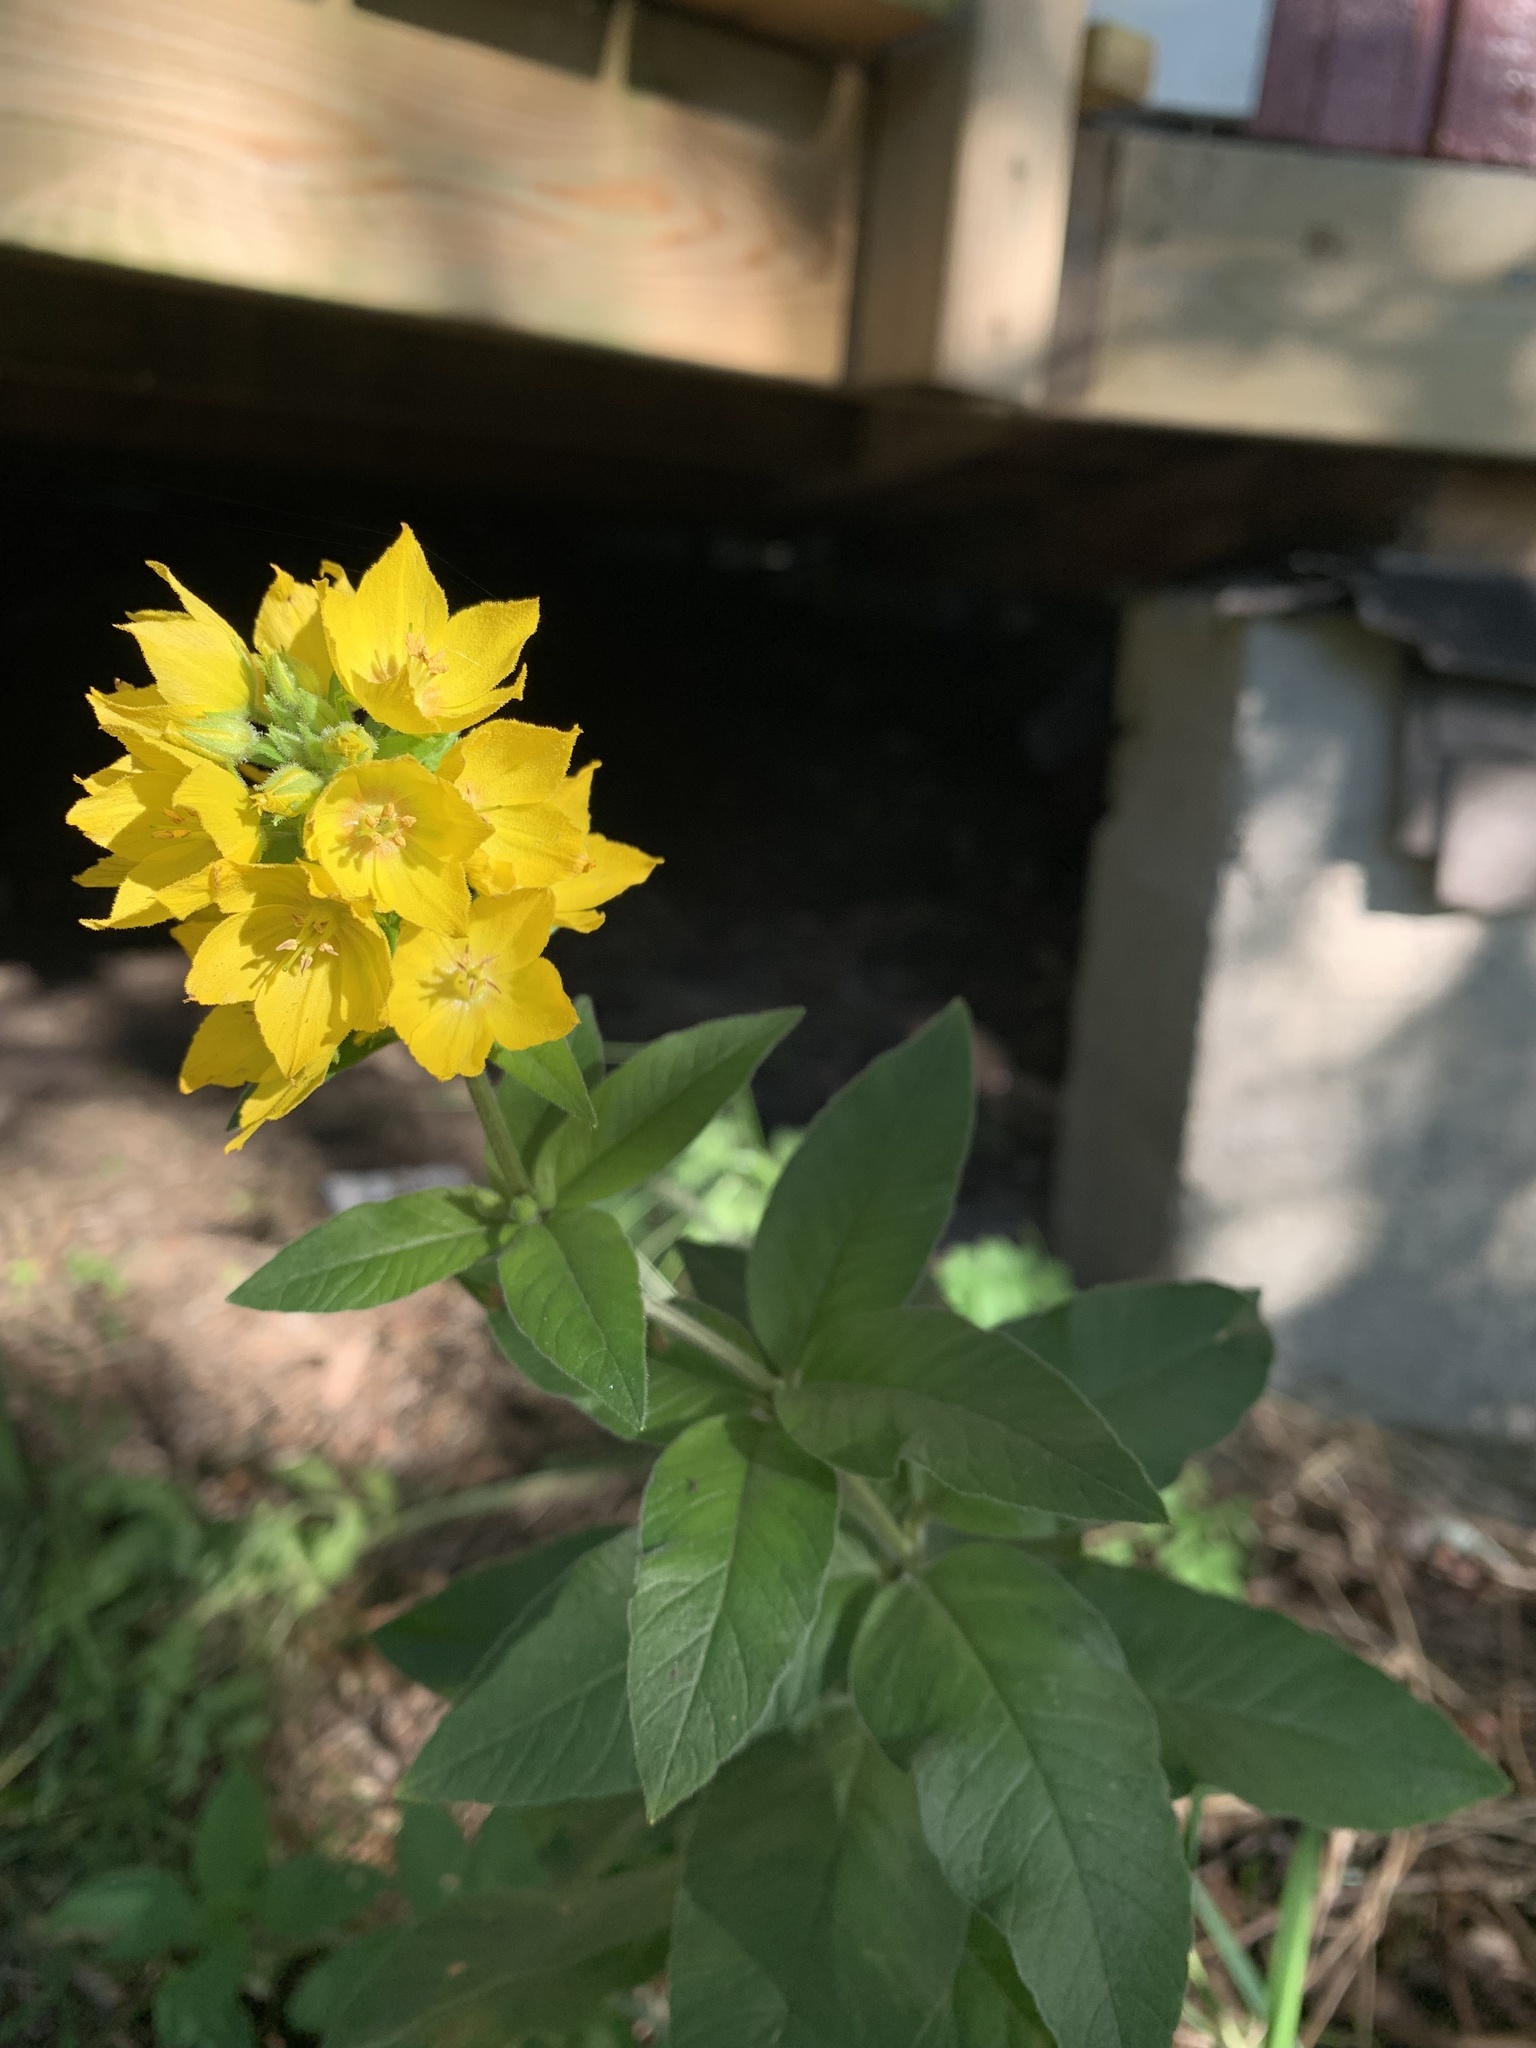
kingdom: Plantae
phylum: Tracheophyta
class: Magnoliopsida
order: Ericales
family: Primulaceae
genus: Lysimachia
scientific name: Lysimachia punctata
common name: Dotted loosestrife
